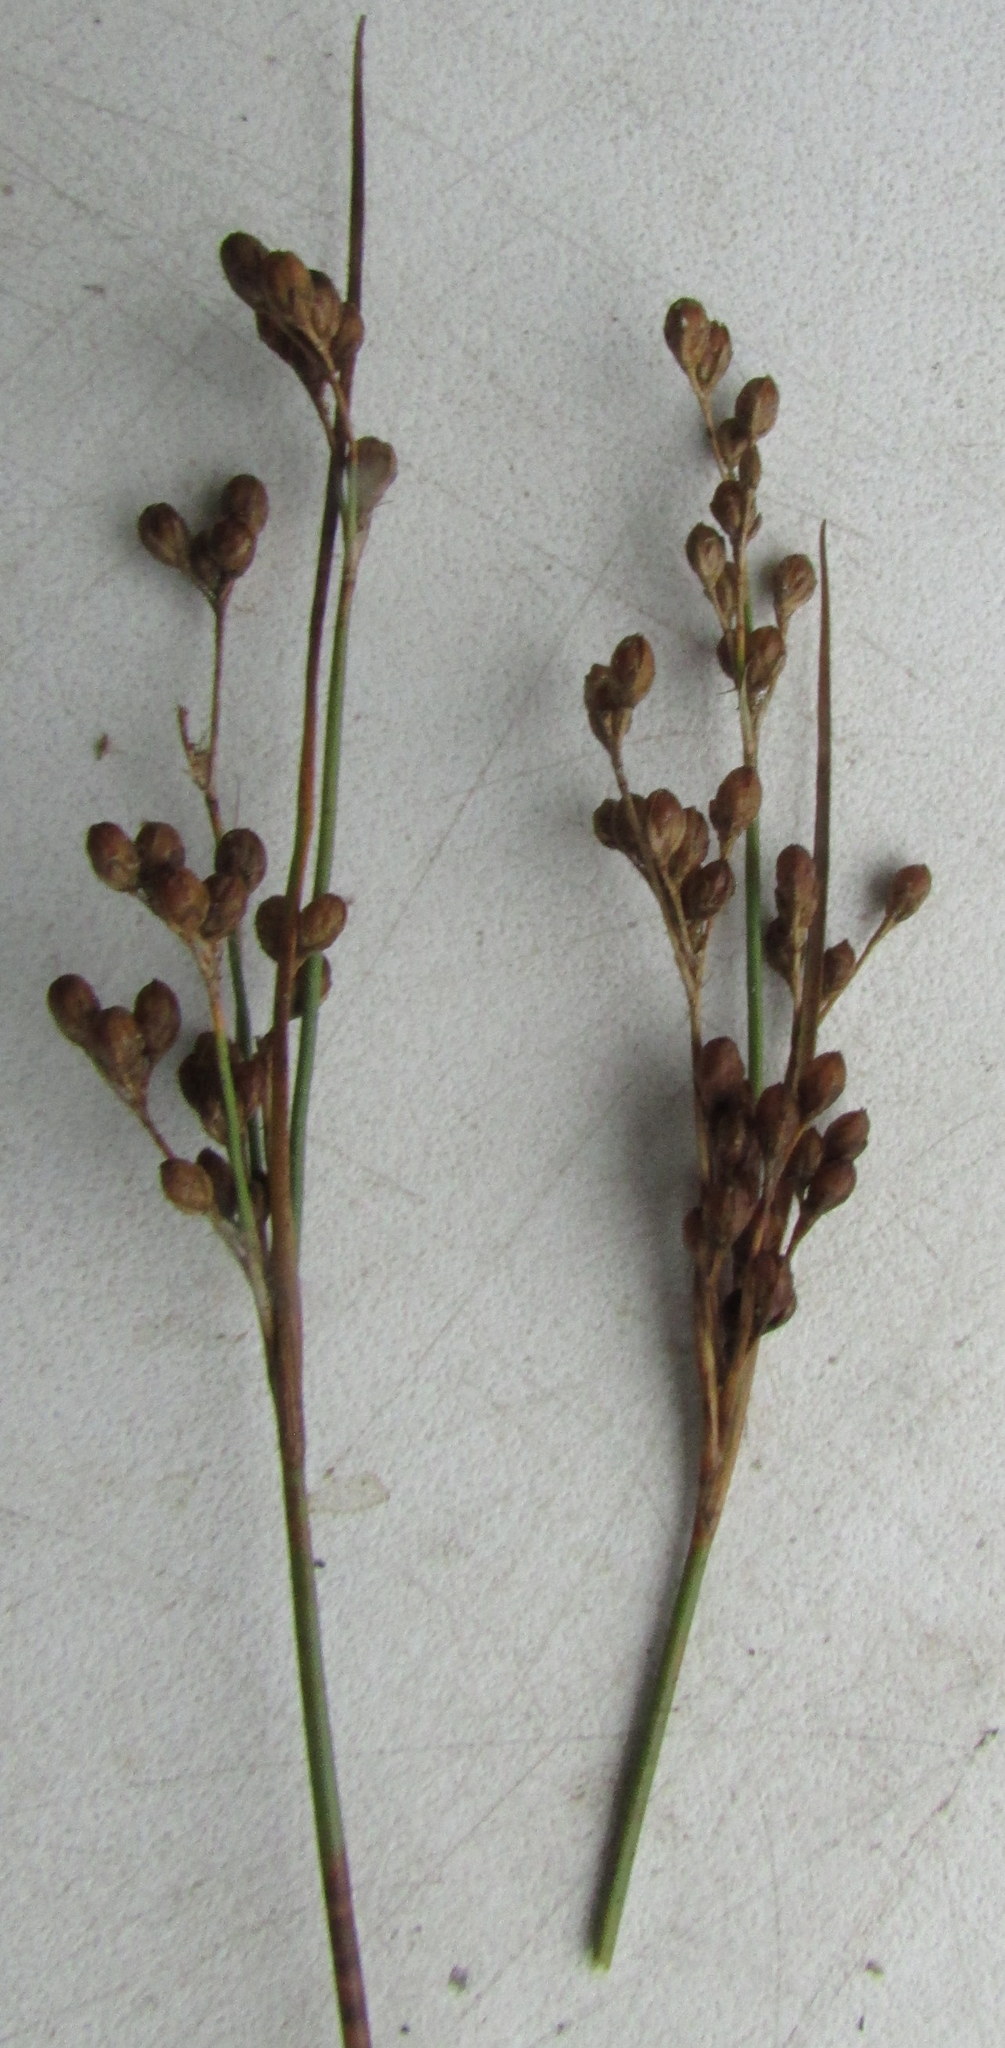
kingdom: Plantae
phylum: Tracheophyta
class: Liliopsida
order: Poales
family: Juncaceae
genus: Juncus
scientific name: Juncus compressus
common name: Round-fruited rush
